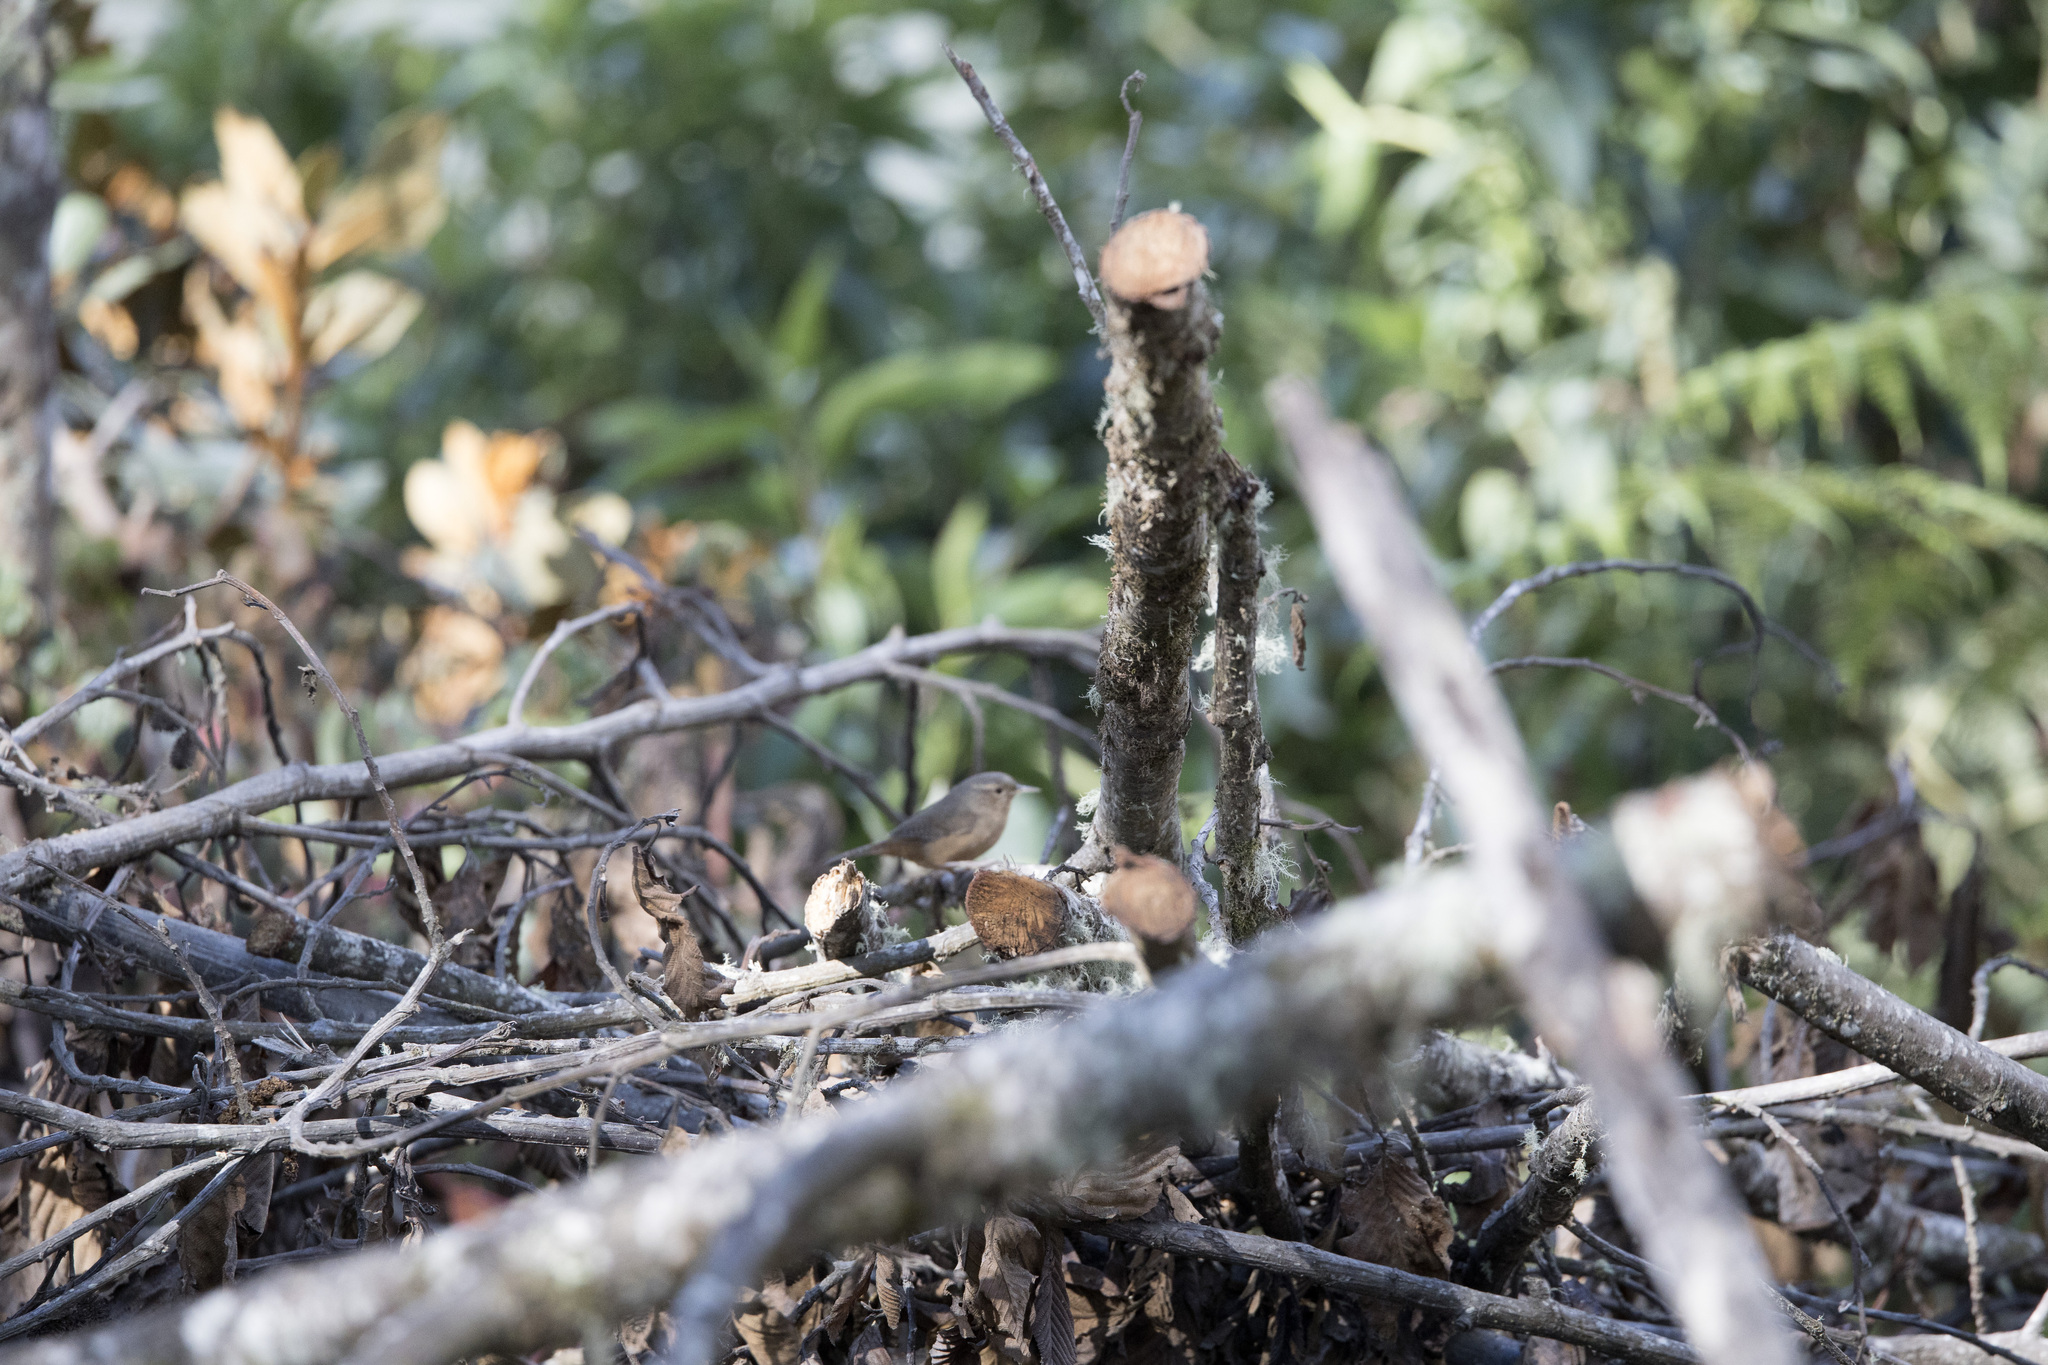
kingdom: Animalia
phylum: Chordata
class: Aves
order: Passeriformes
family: Troglodytidae
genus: Troglodytes
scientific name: Troglodytes aedon
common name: House wren
